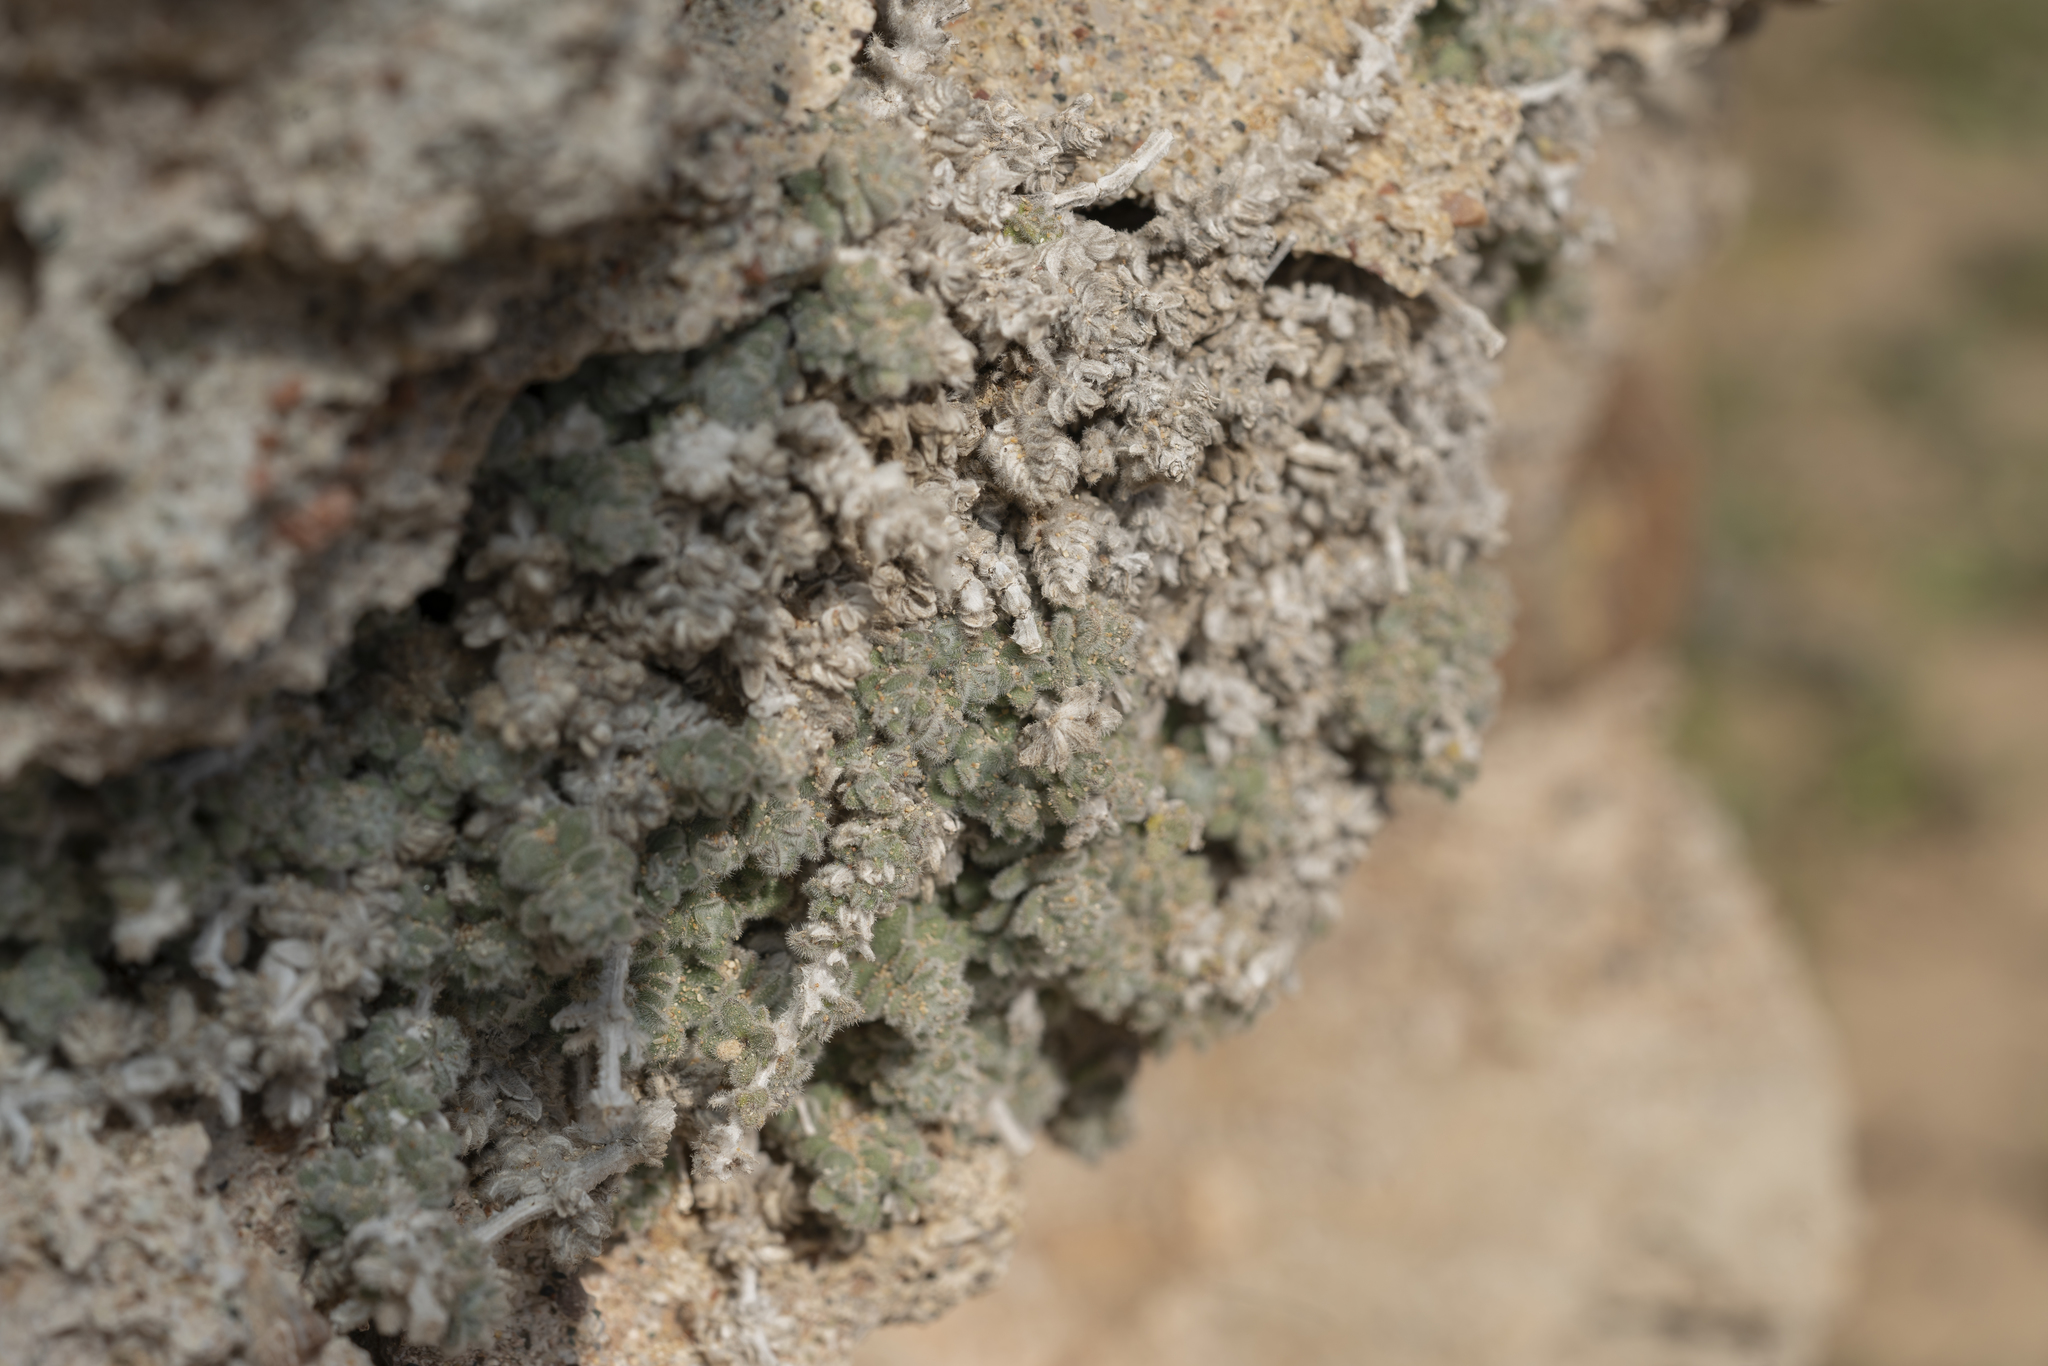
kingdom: Plantae
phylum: Tracheophyta
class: Magnoliopsida
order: Gentianales
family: Rubiaceae
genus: Galium
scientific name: Galium canum
